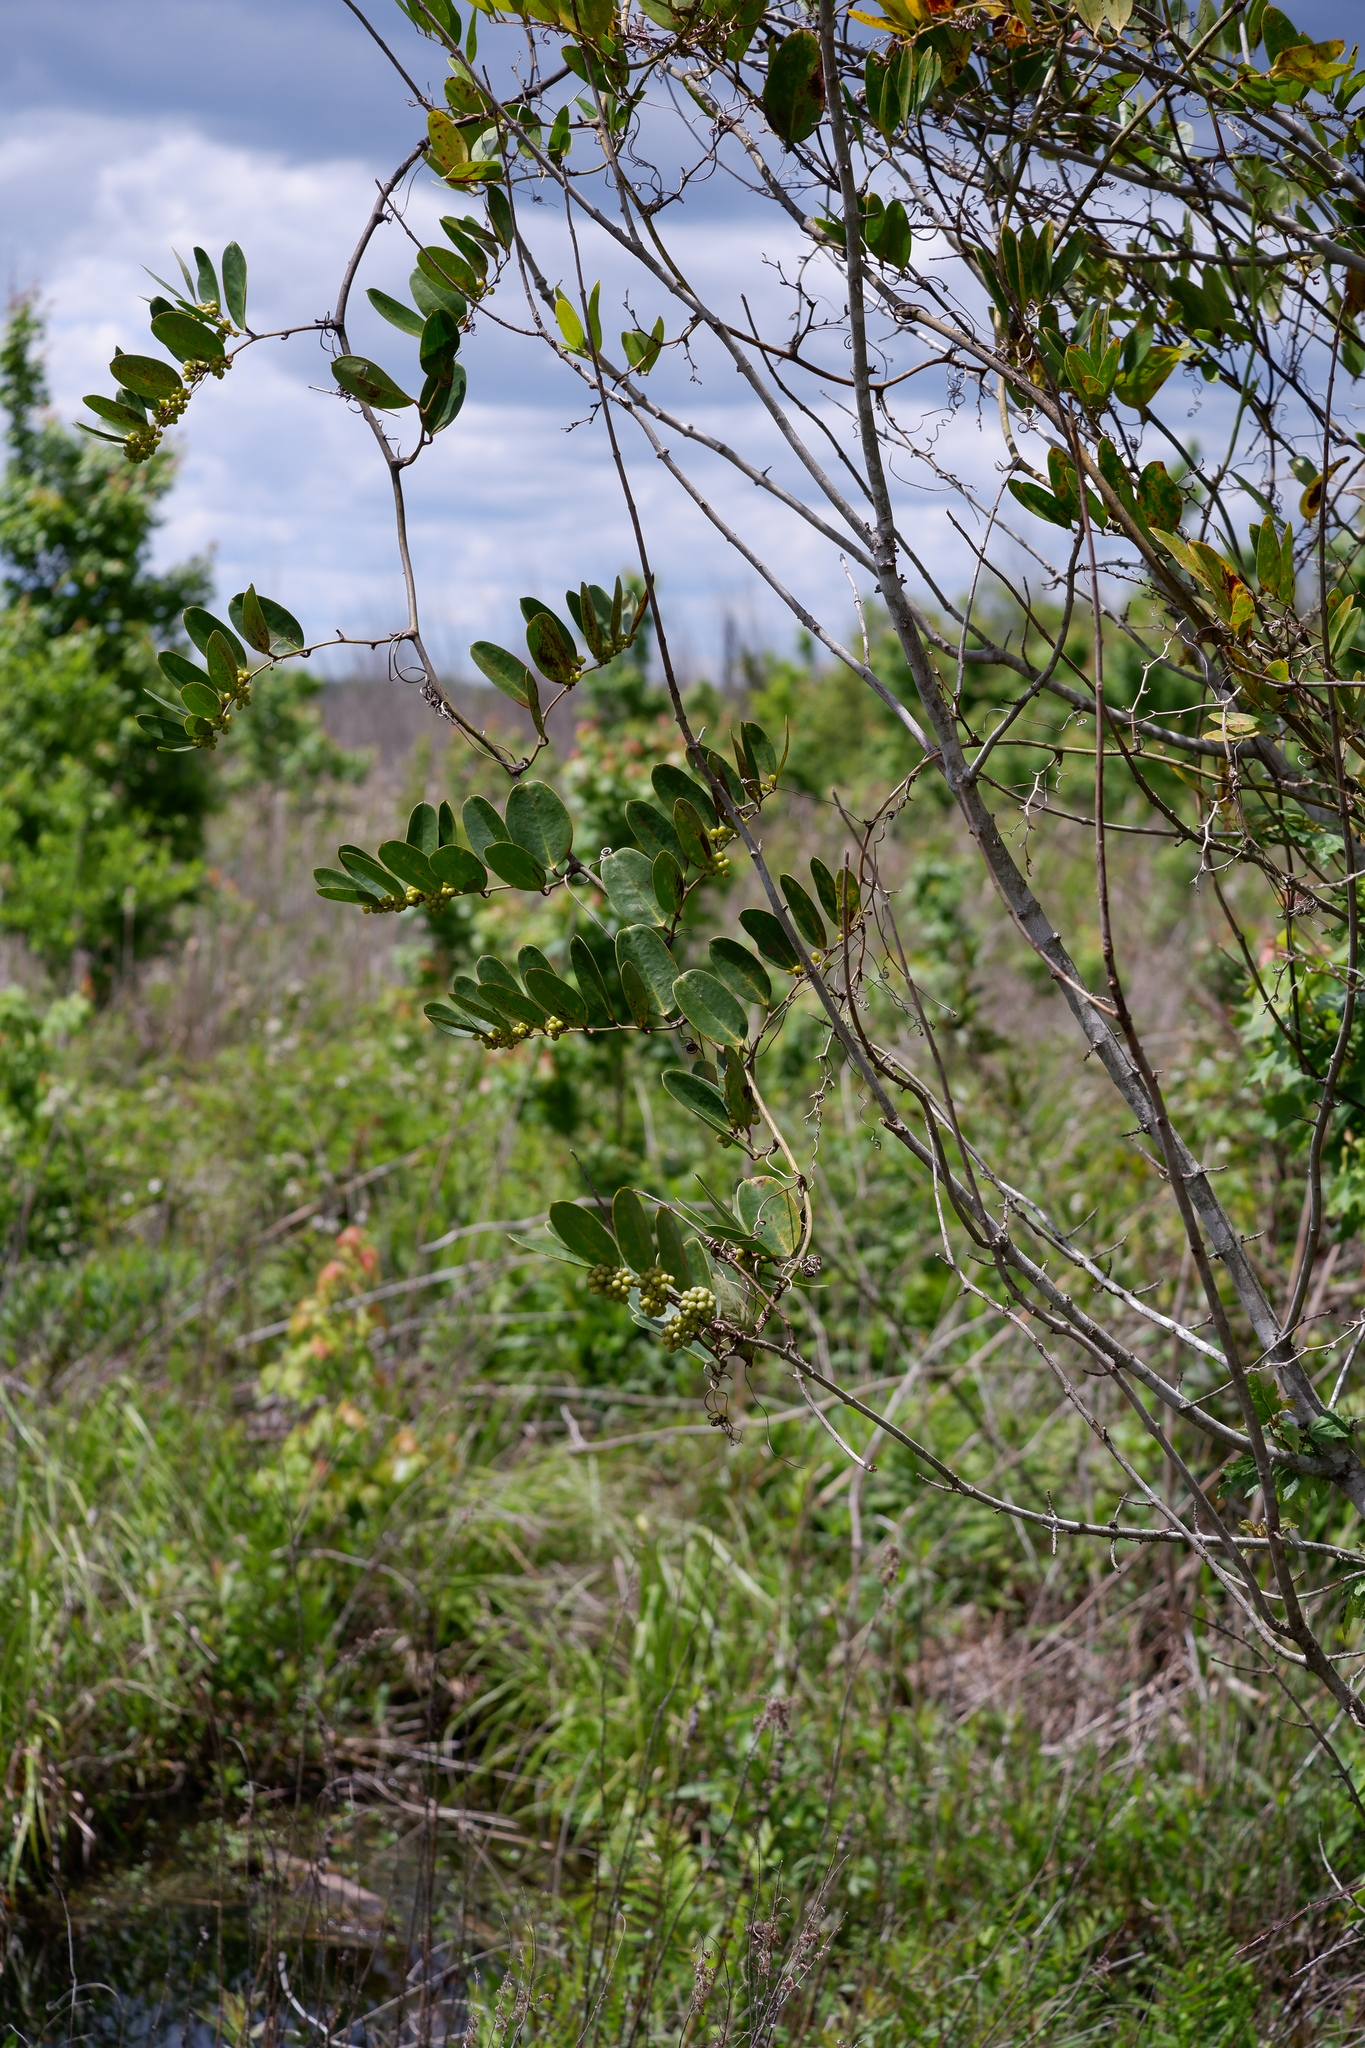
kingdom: Plantae
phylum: Tracheophyta
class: Liliopsida
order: Liliales
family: Smilacaceae
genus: Smilax
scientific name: Smilax laurifolia
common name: Bamboovine
